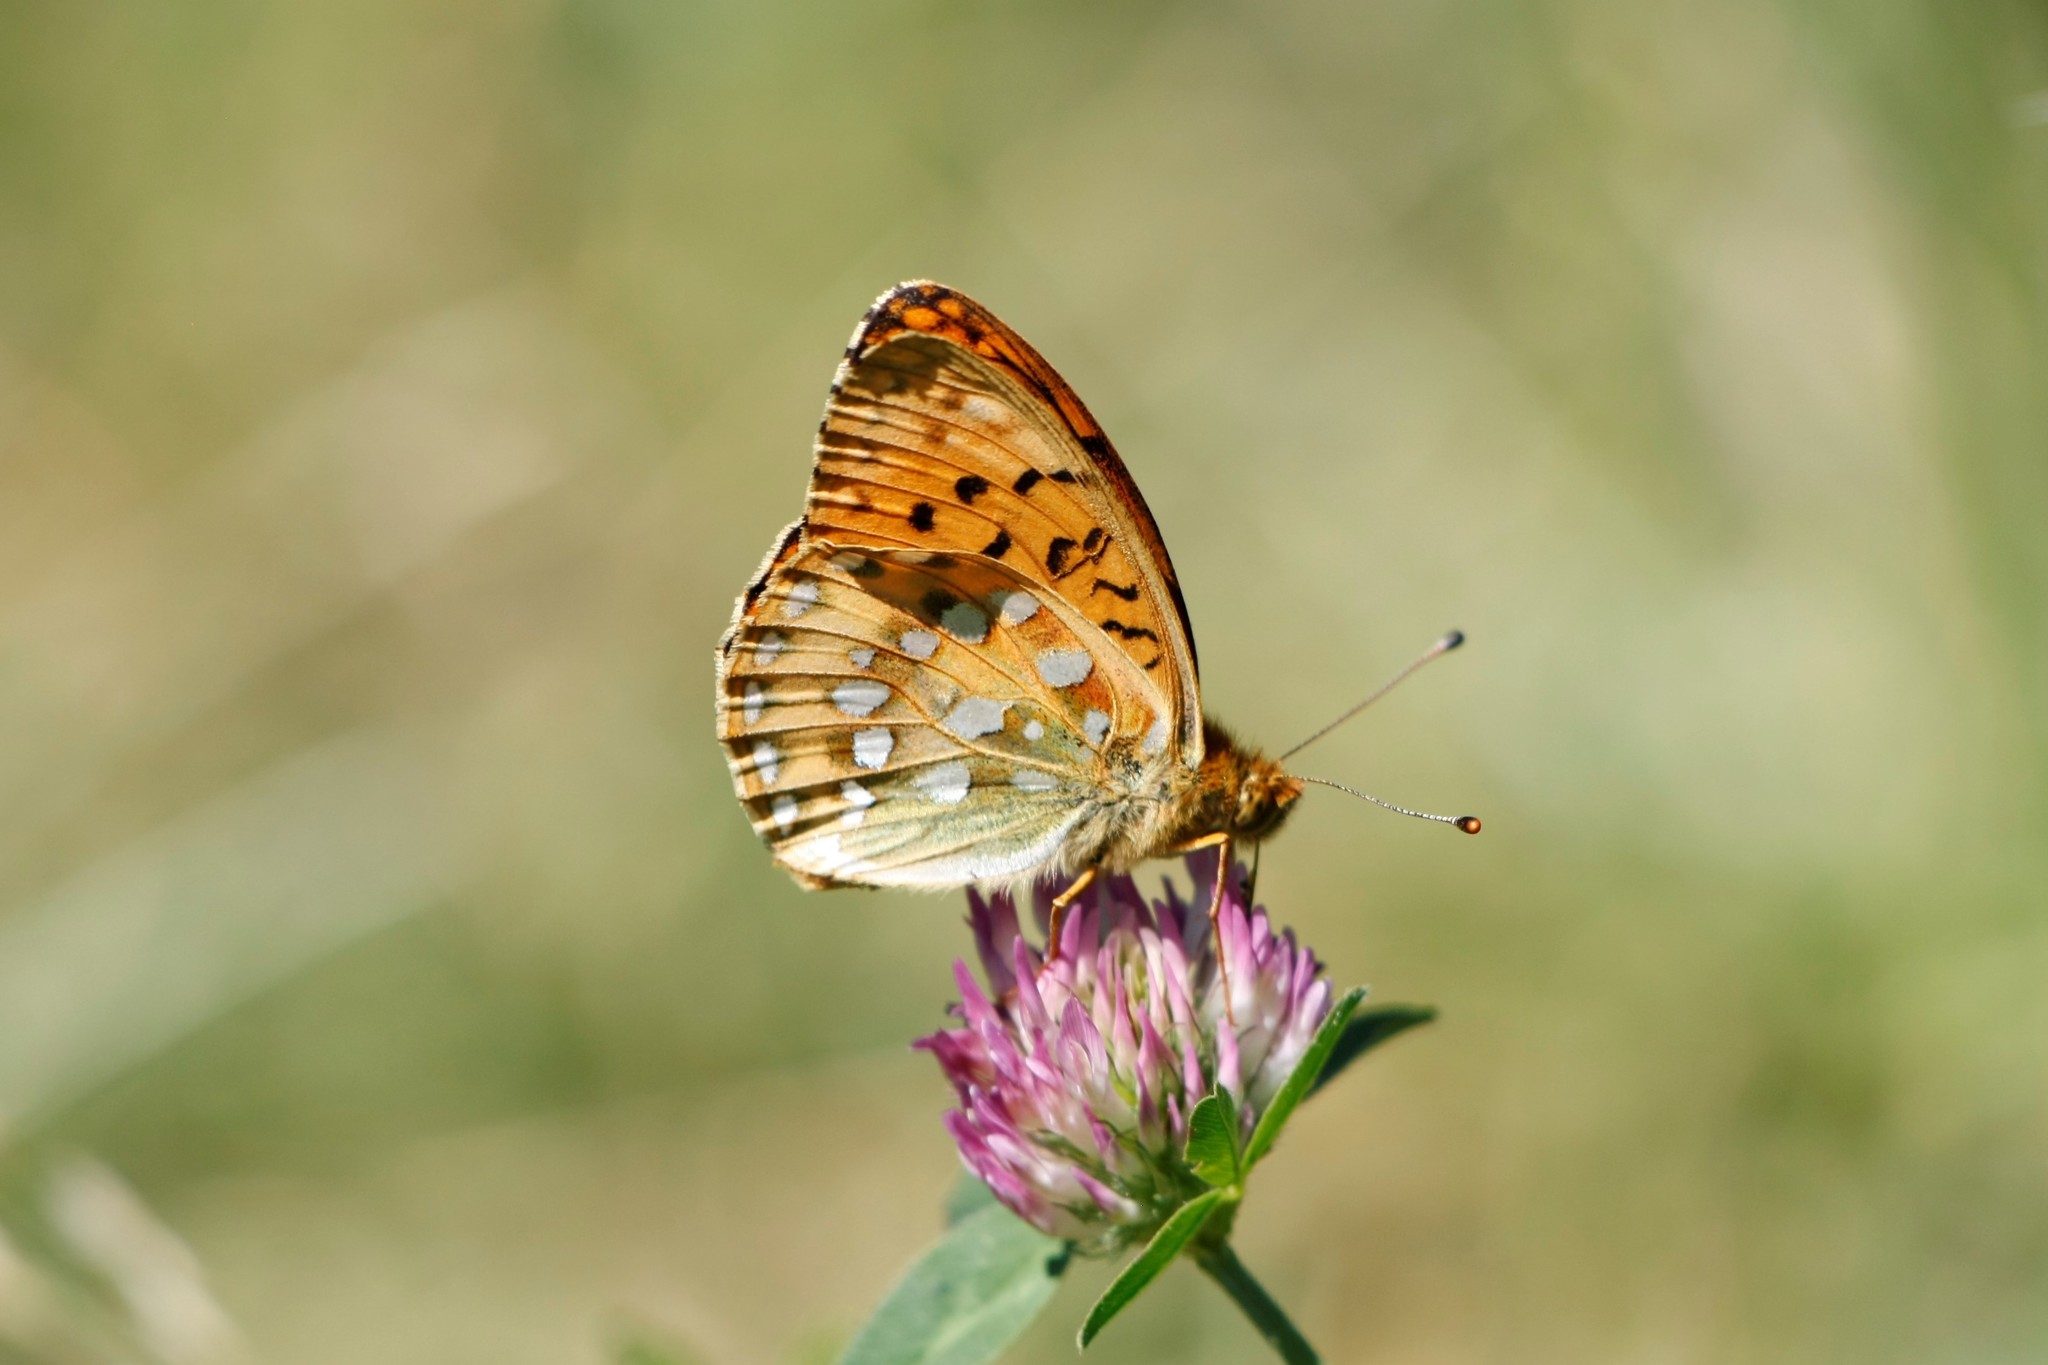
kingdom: Animalia
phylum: Arthropoda
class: Insecta
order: Lepidoptera
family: Nymphalidae
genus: Speyeria
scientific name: Speyeria aglaja
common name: Dark green fritillary
